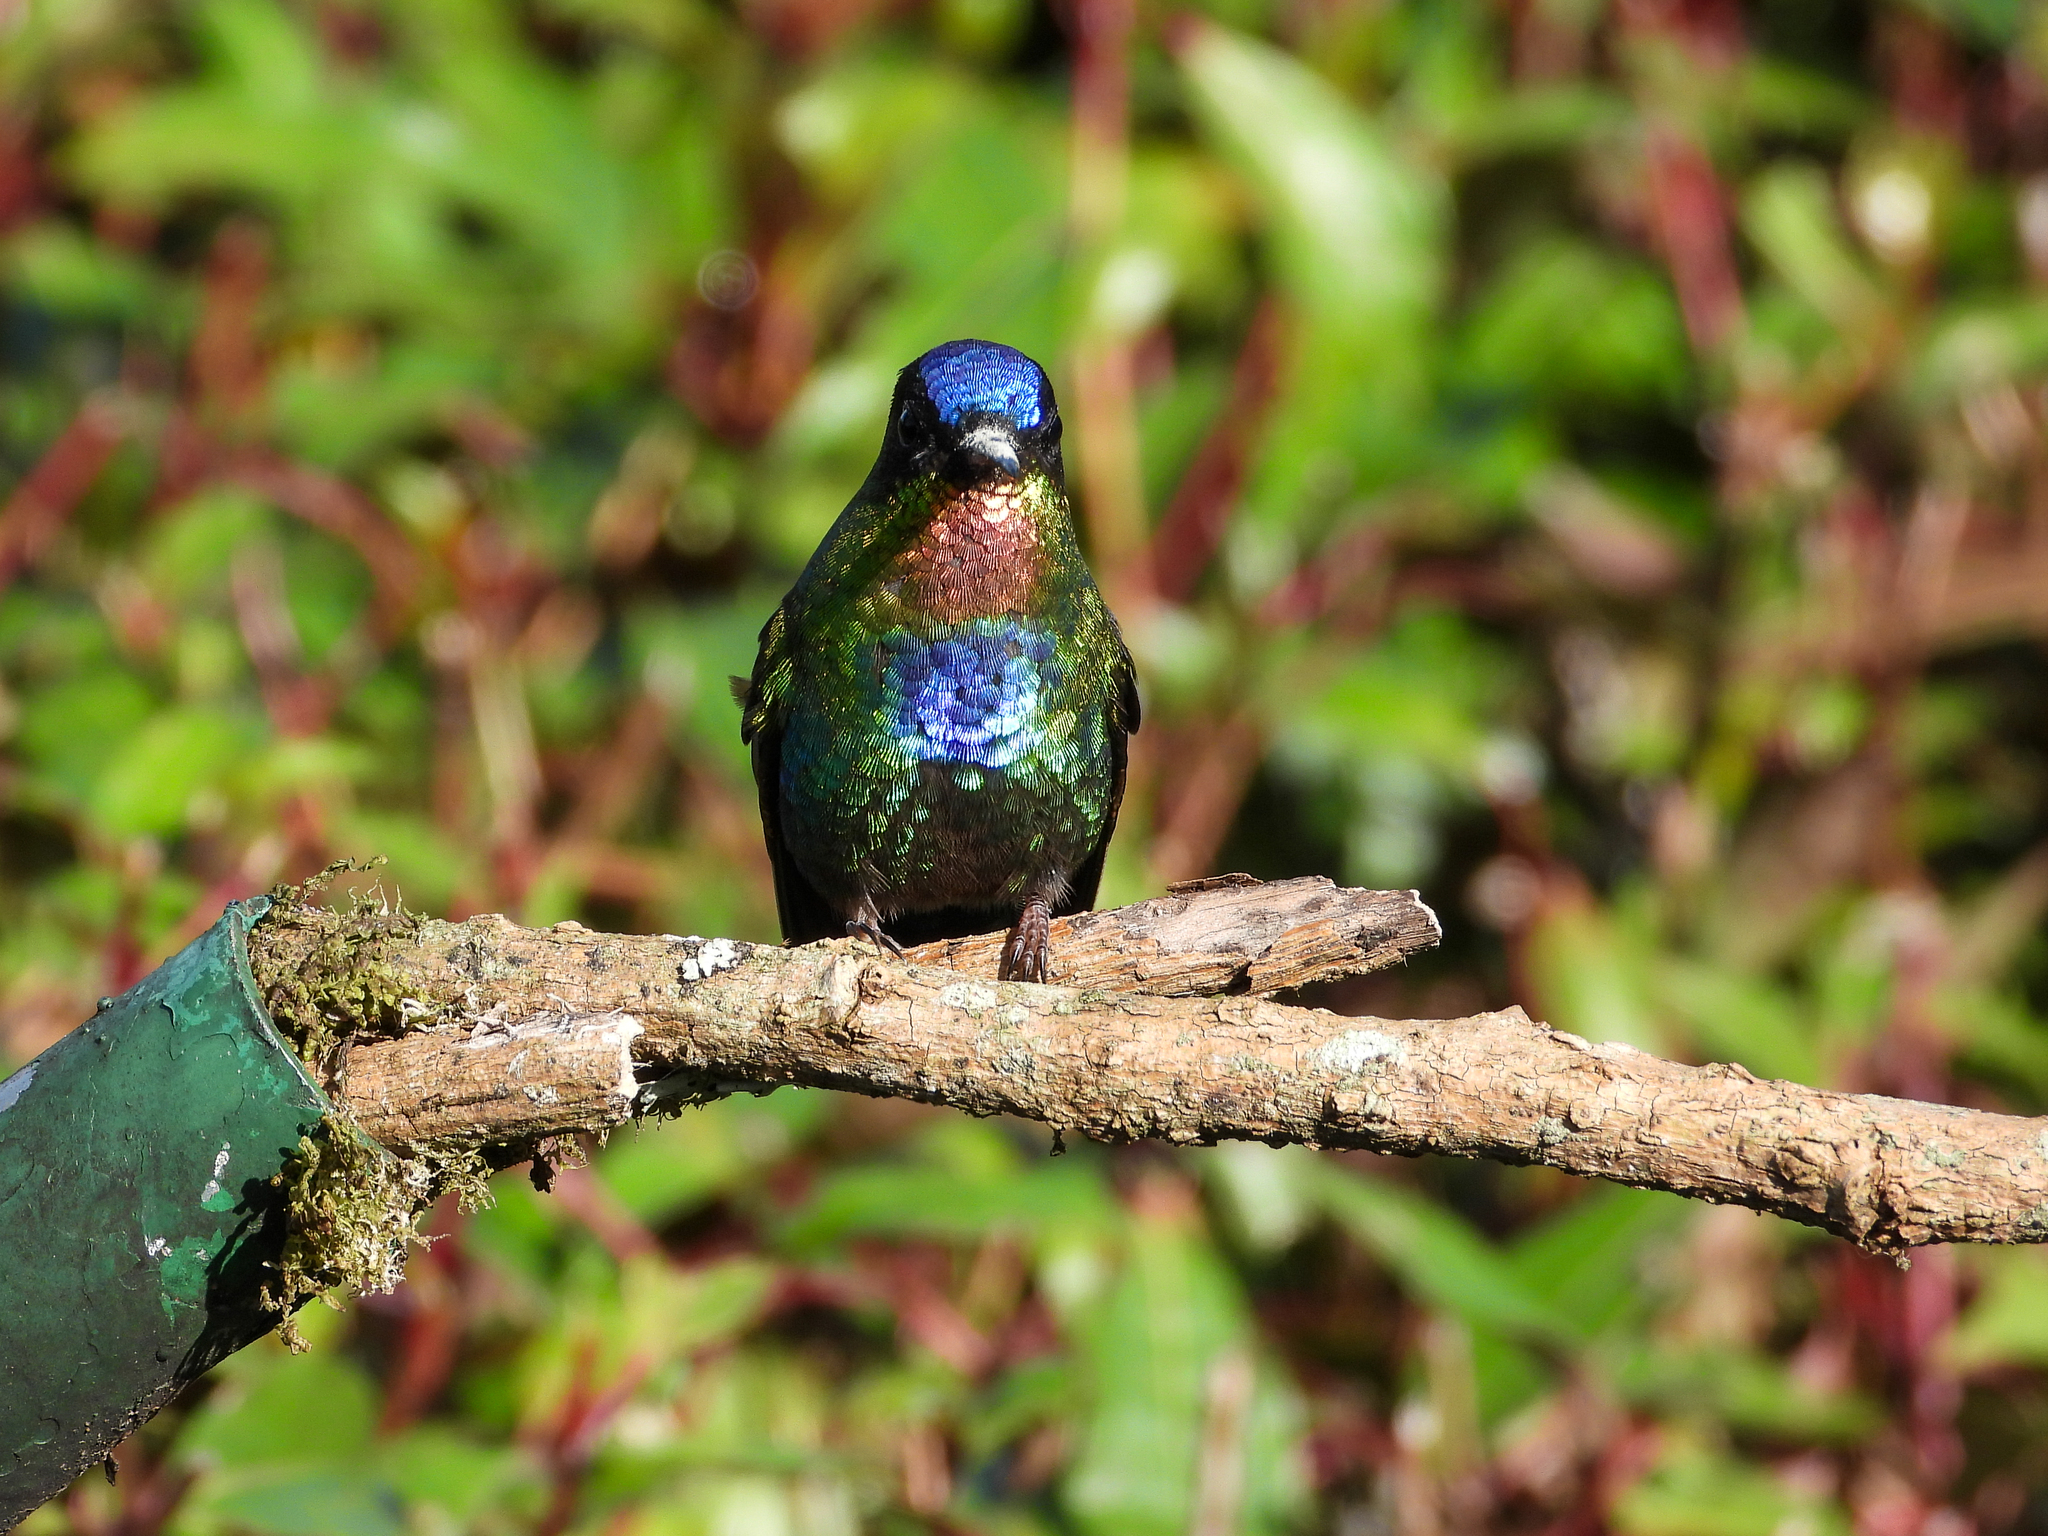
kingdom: Animalia
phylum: Chordata
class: Aves
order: Apodiformes
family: Trochilidae
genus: Panterpe
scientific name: Panterpe insignis
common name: Fiery-throated hummingbird
